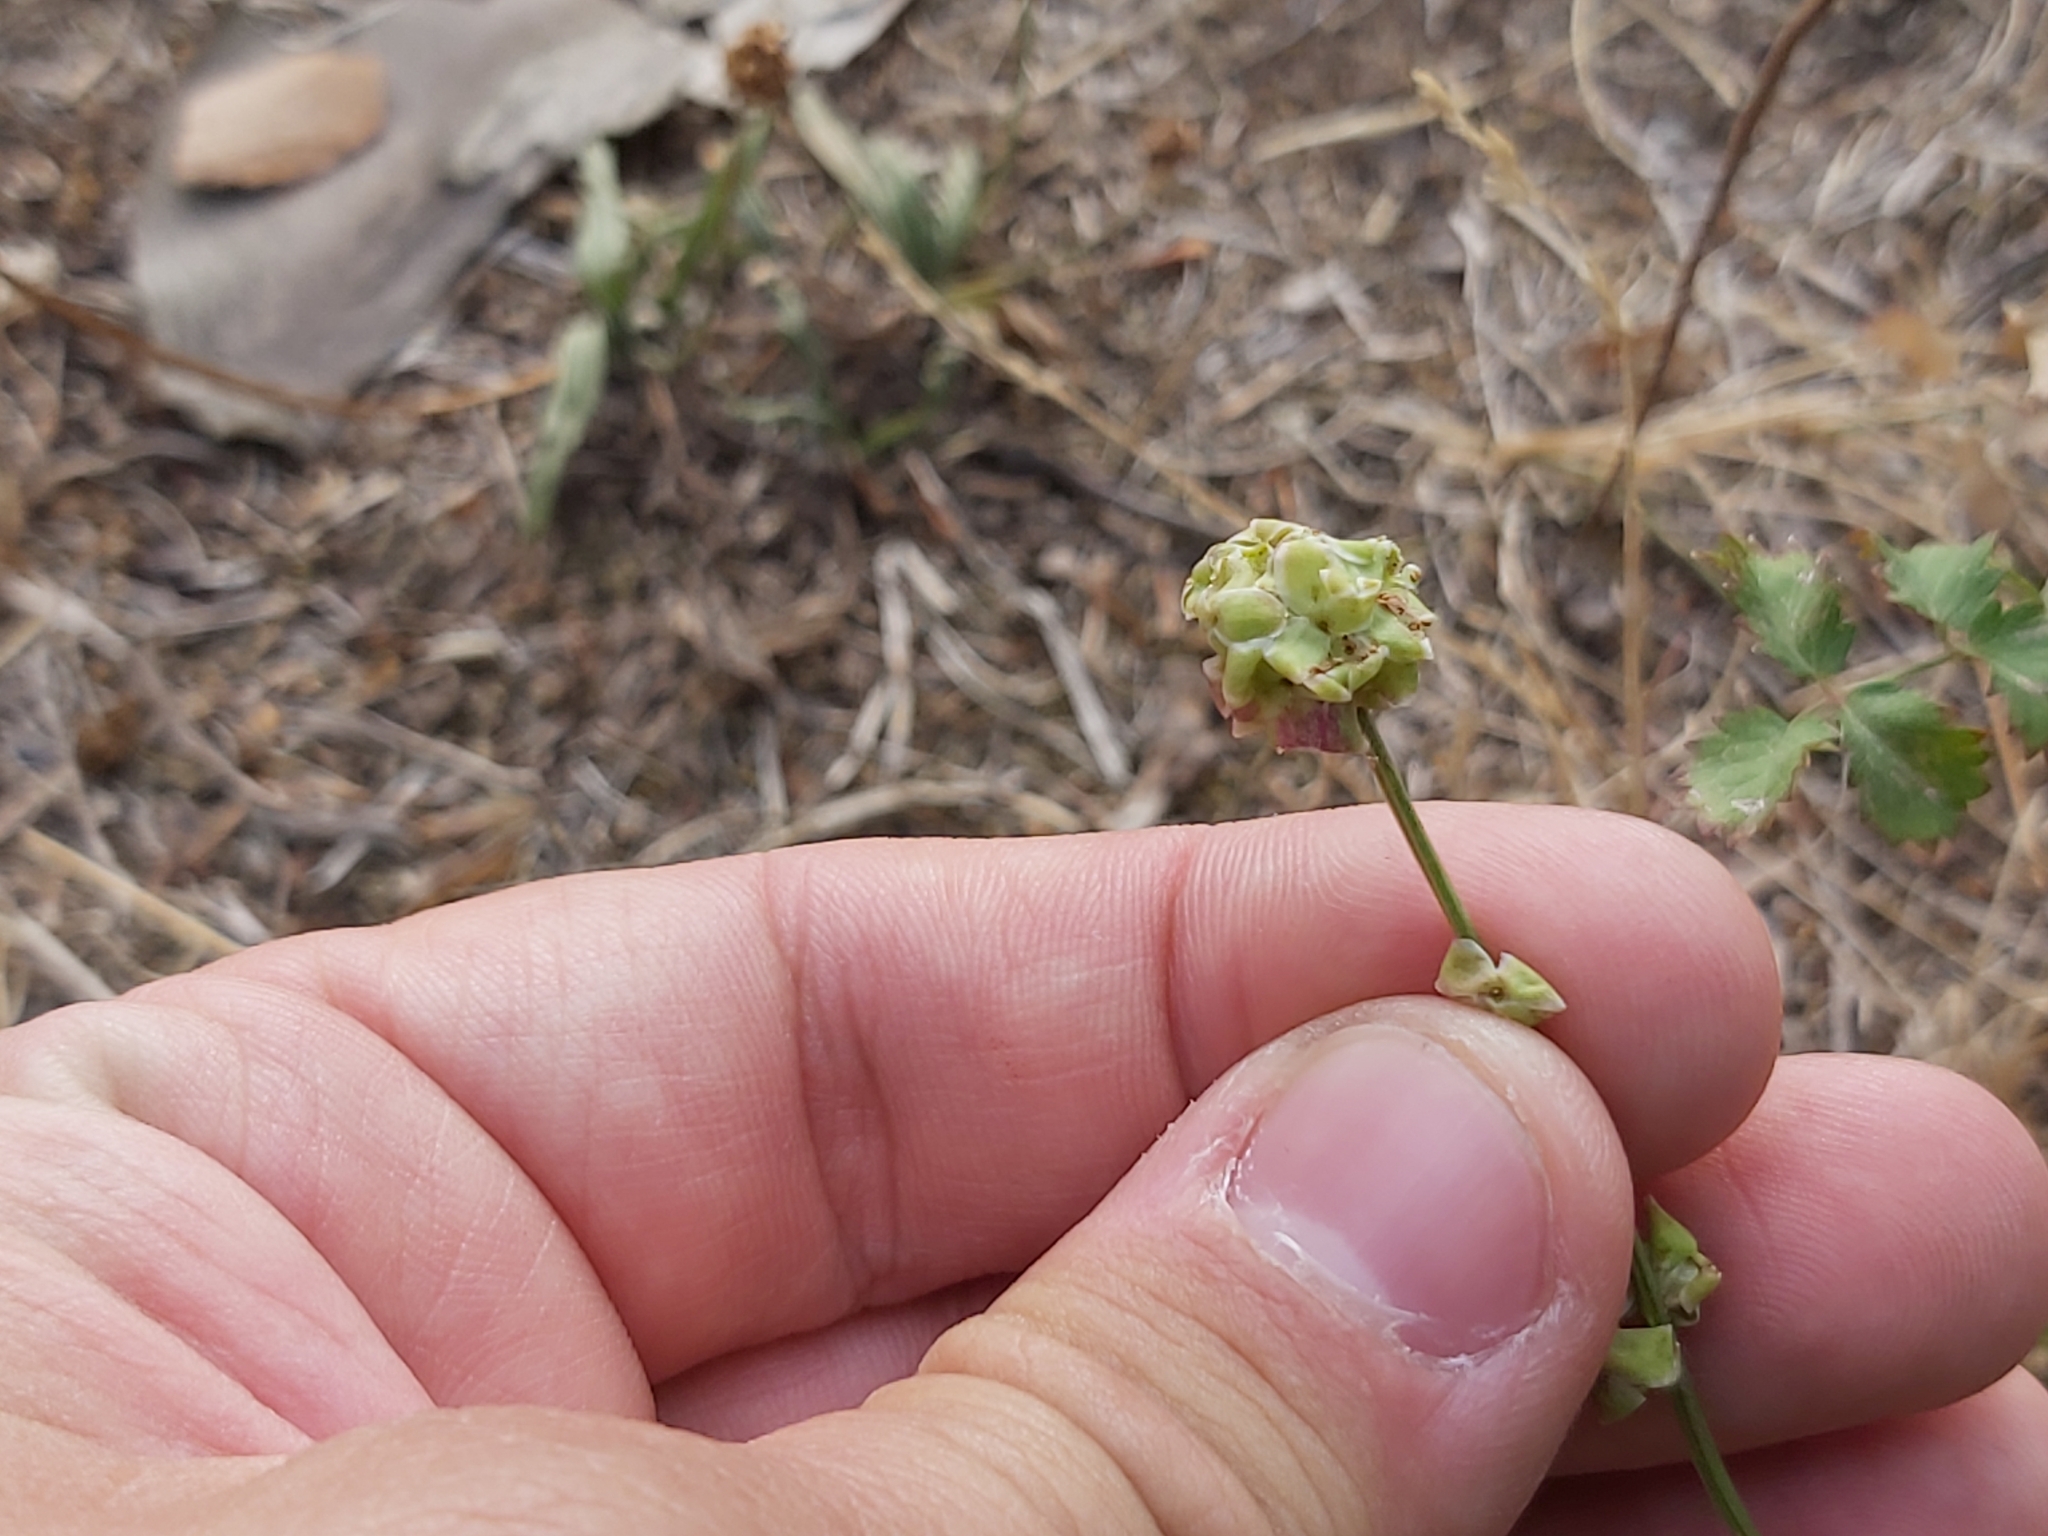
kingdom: Plantae
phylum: Tracheophyta
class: Magnoliopsida
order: Rosales
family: Rosaceae
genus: Poterium
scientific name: Poterium sanguisorba
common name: Salad burnet
